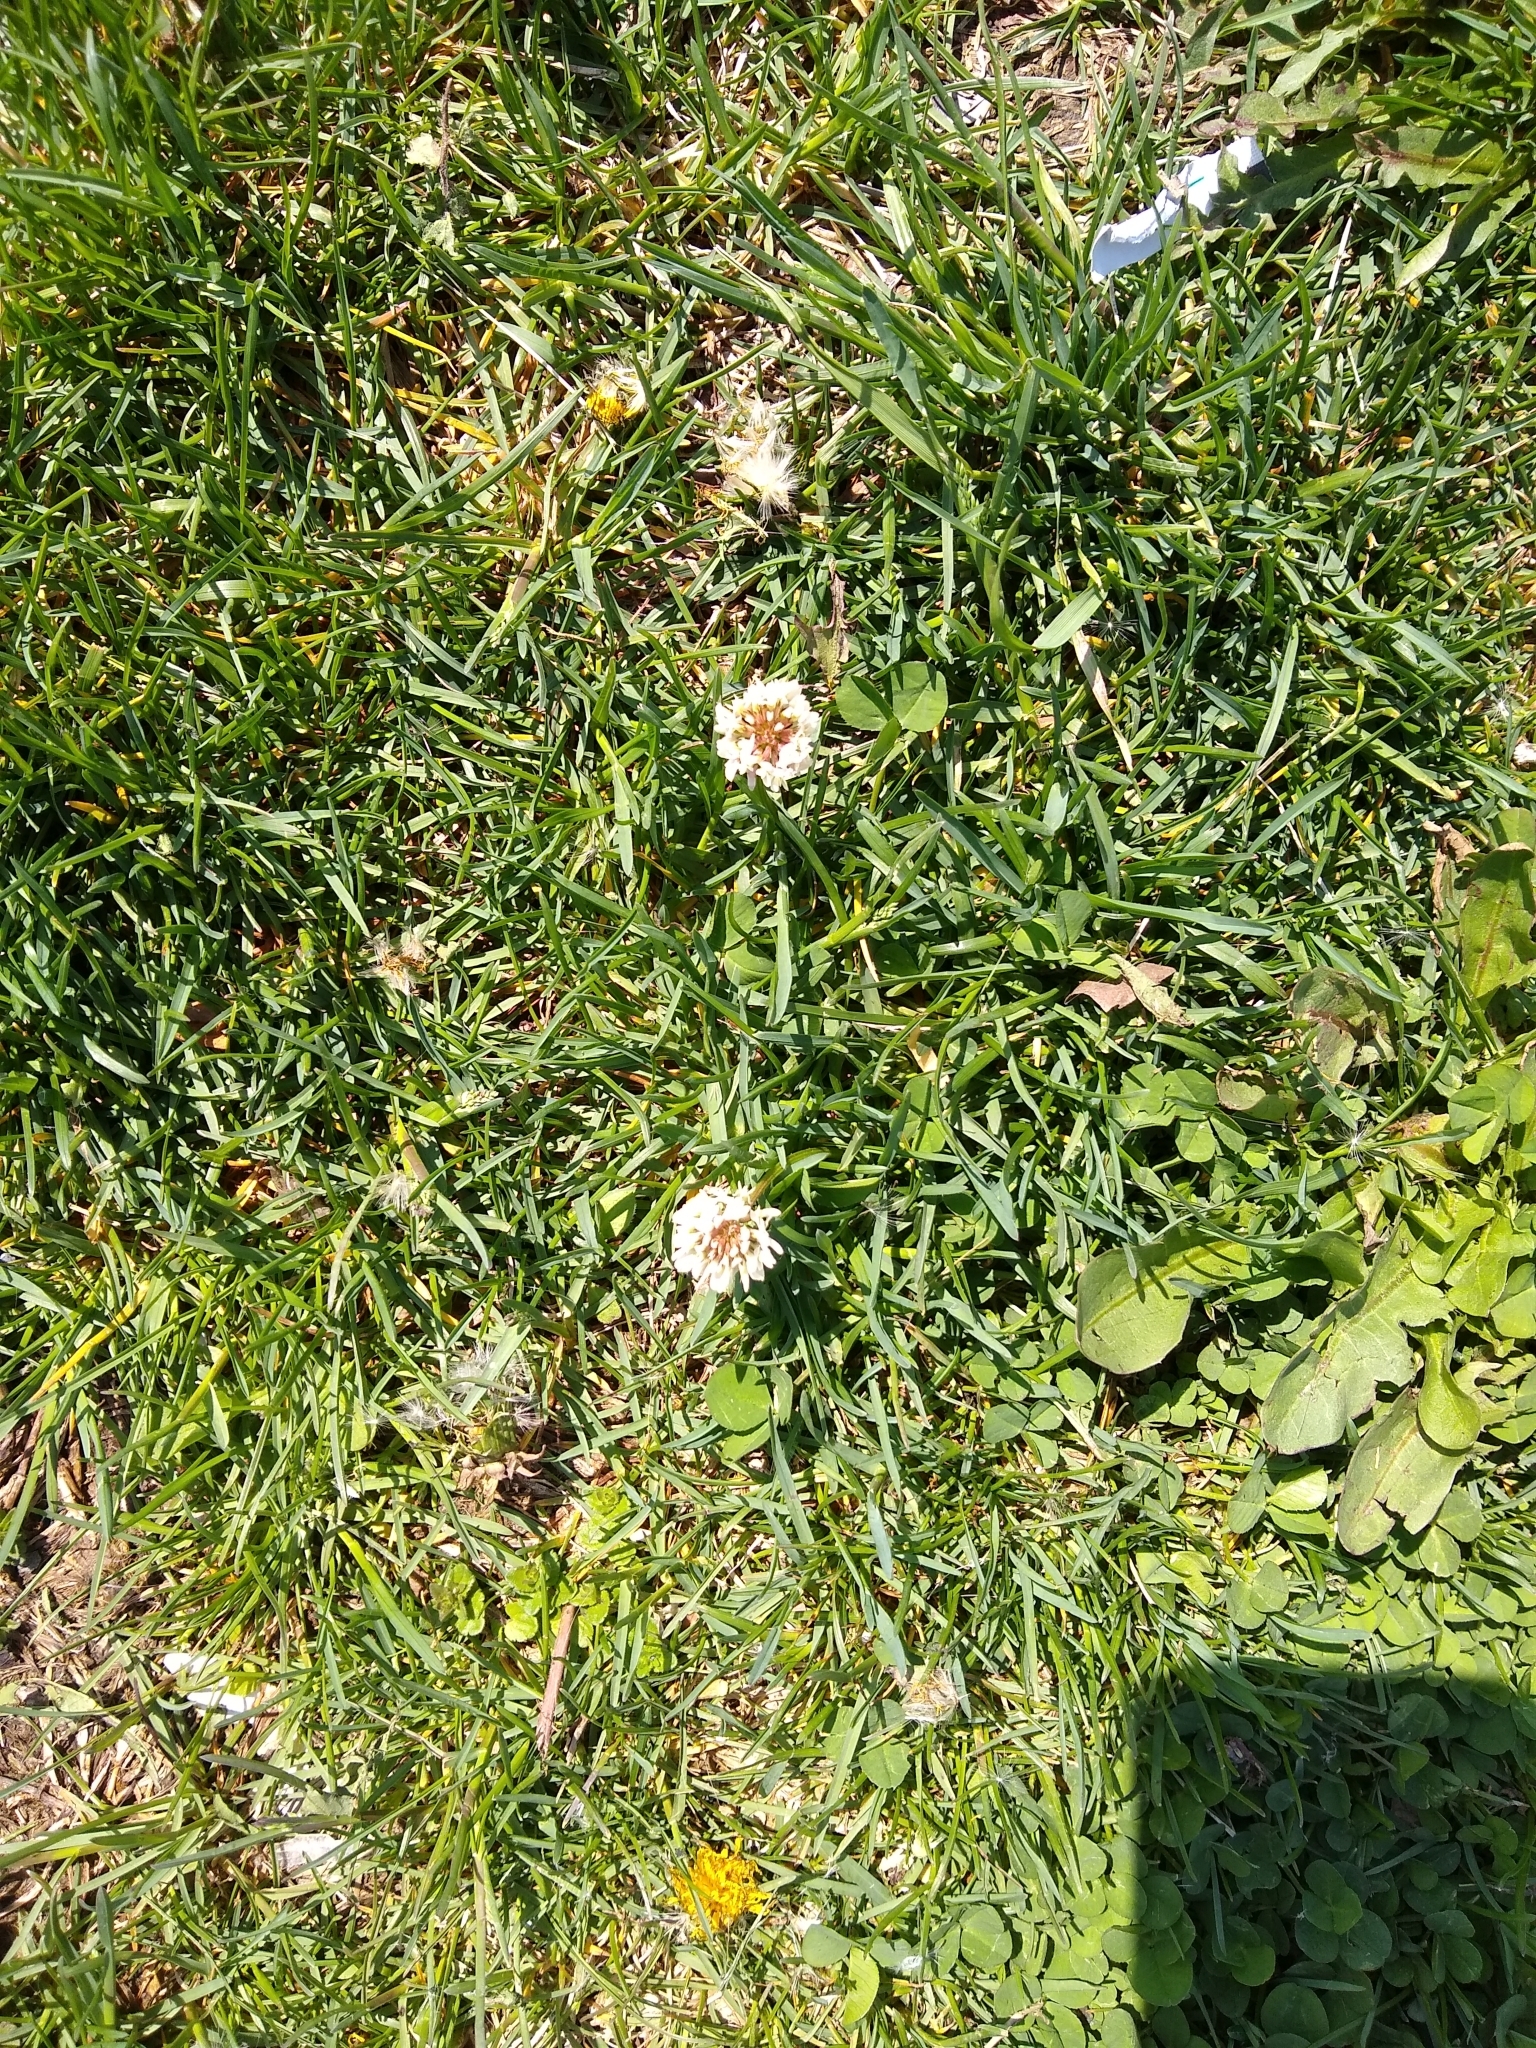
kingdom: Plantae
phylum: Tracheophyta
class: Magnoliopsida
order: Fabales
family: Fabaceae
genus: Trifolium
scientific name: Trifolium repens
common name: White clover
